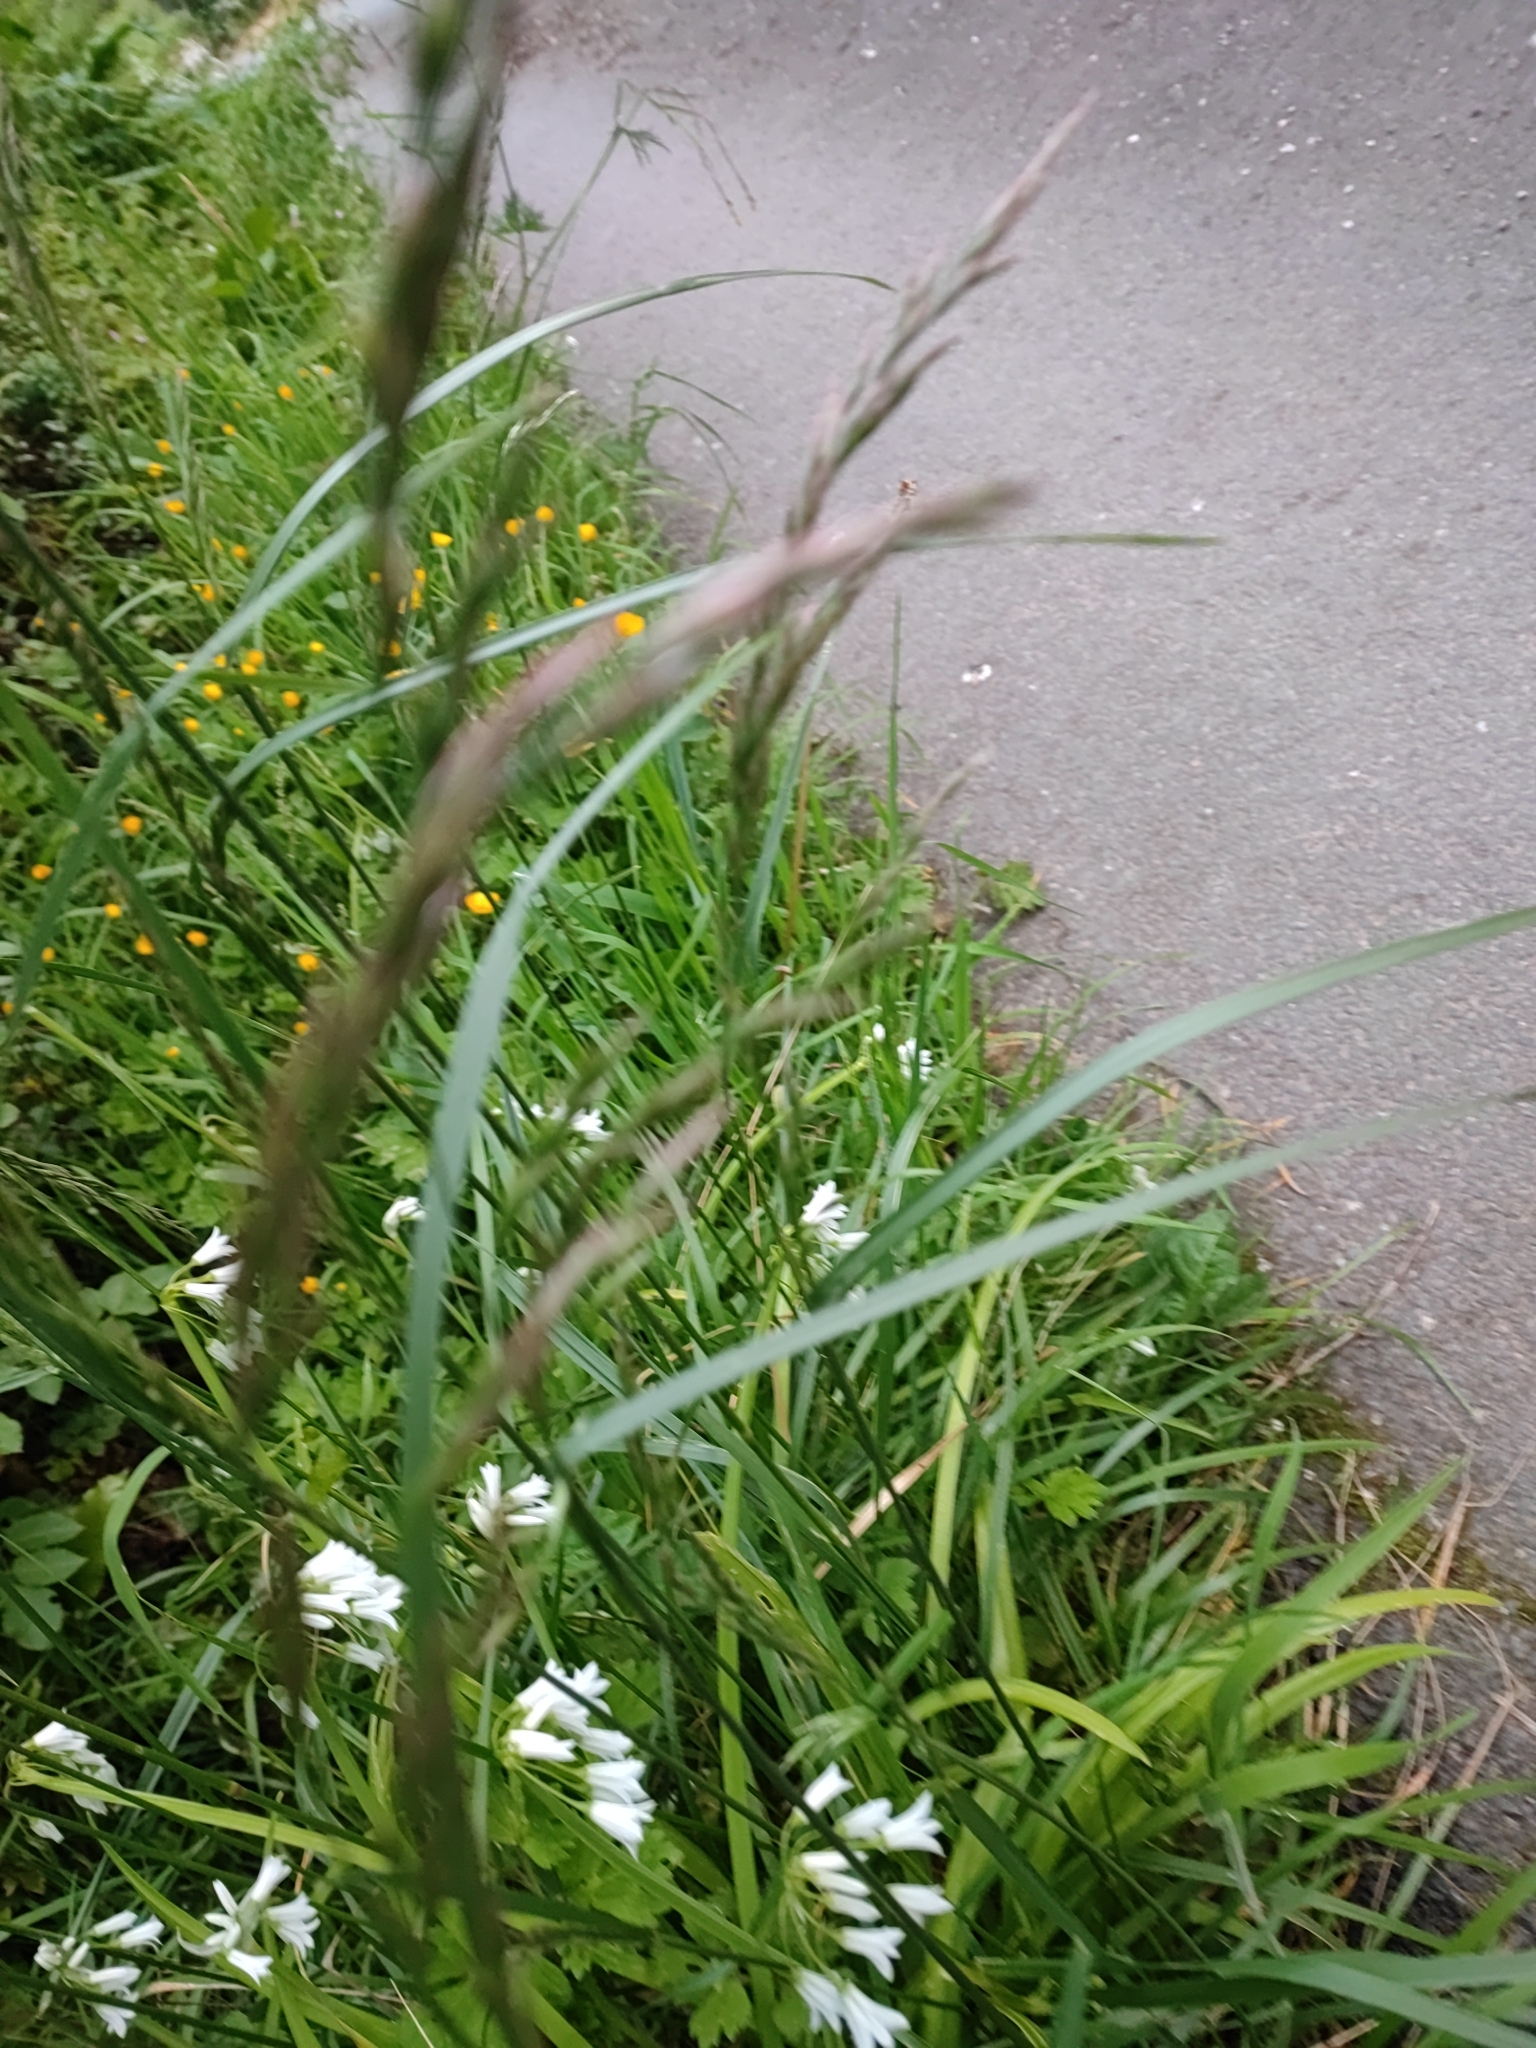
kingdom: Plantae
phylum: Tracheophyta
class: Liliopsida
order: Asparagales
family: Amaryllidaceae
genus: Allium
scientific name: Allium triquetrum
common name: Three-cornered garlic
